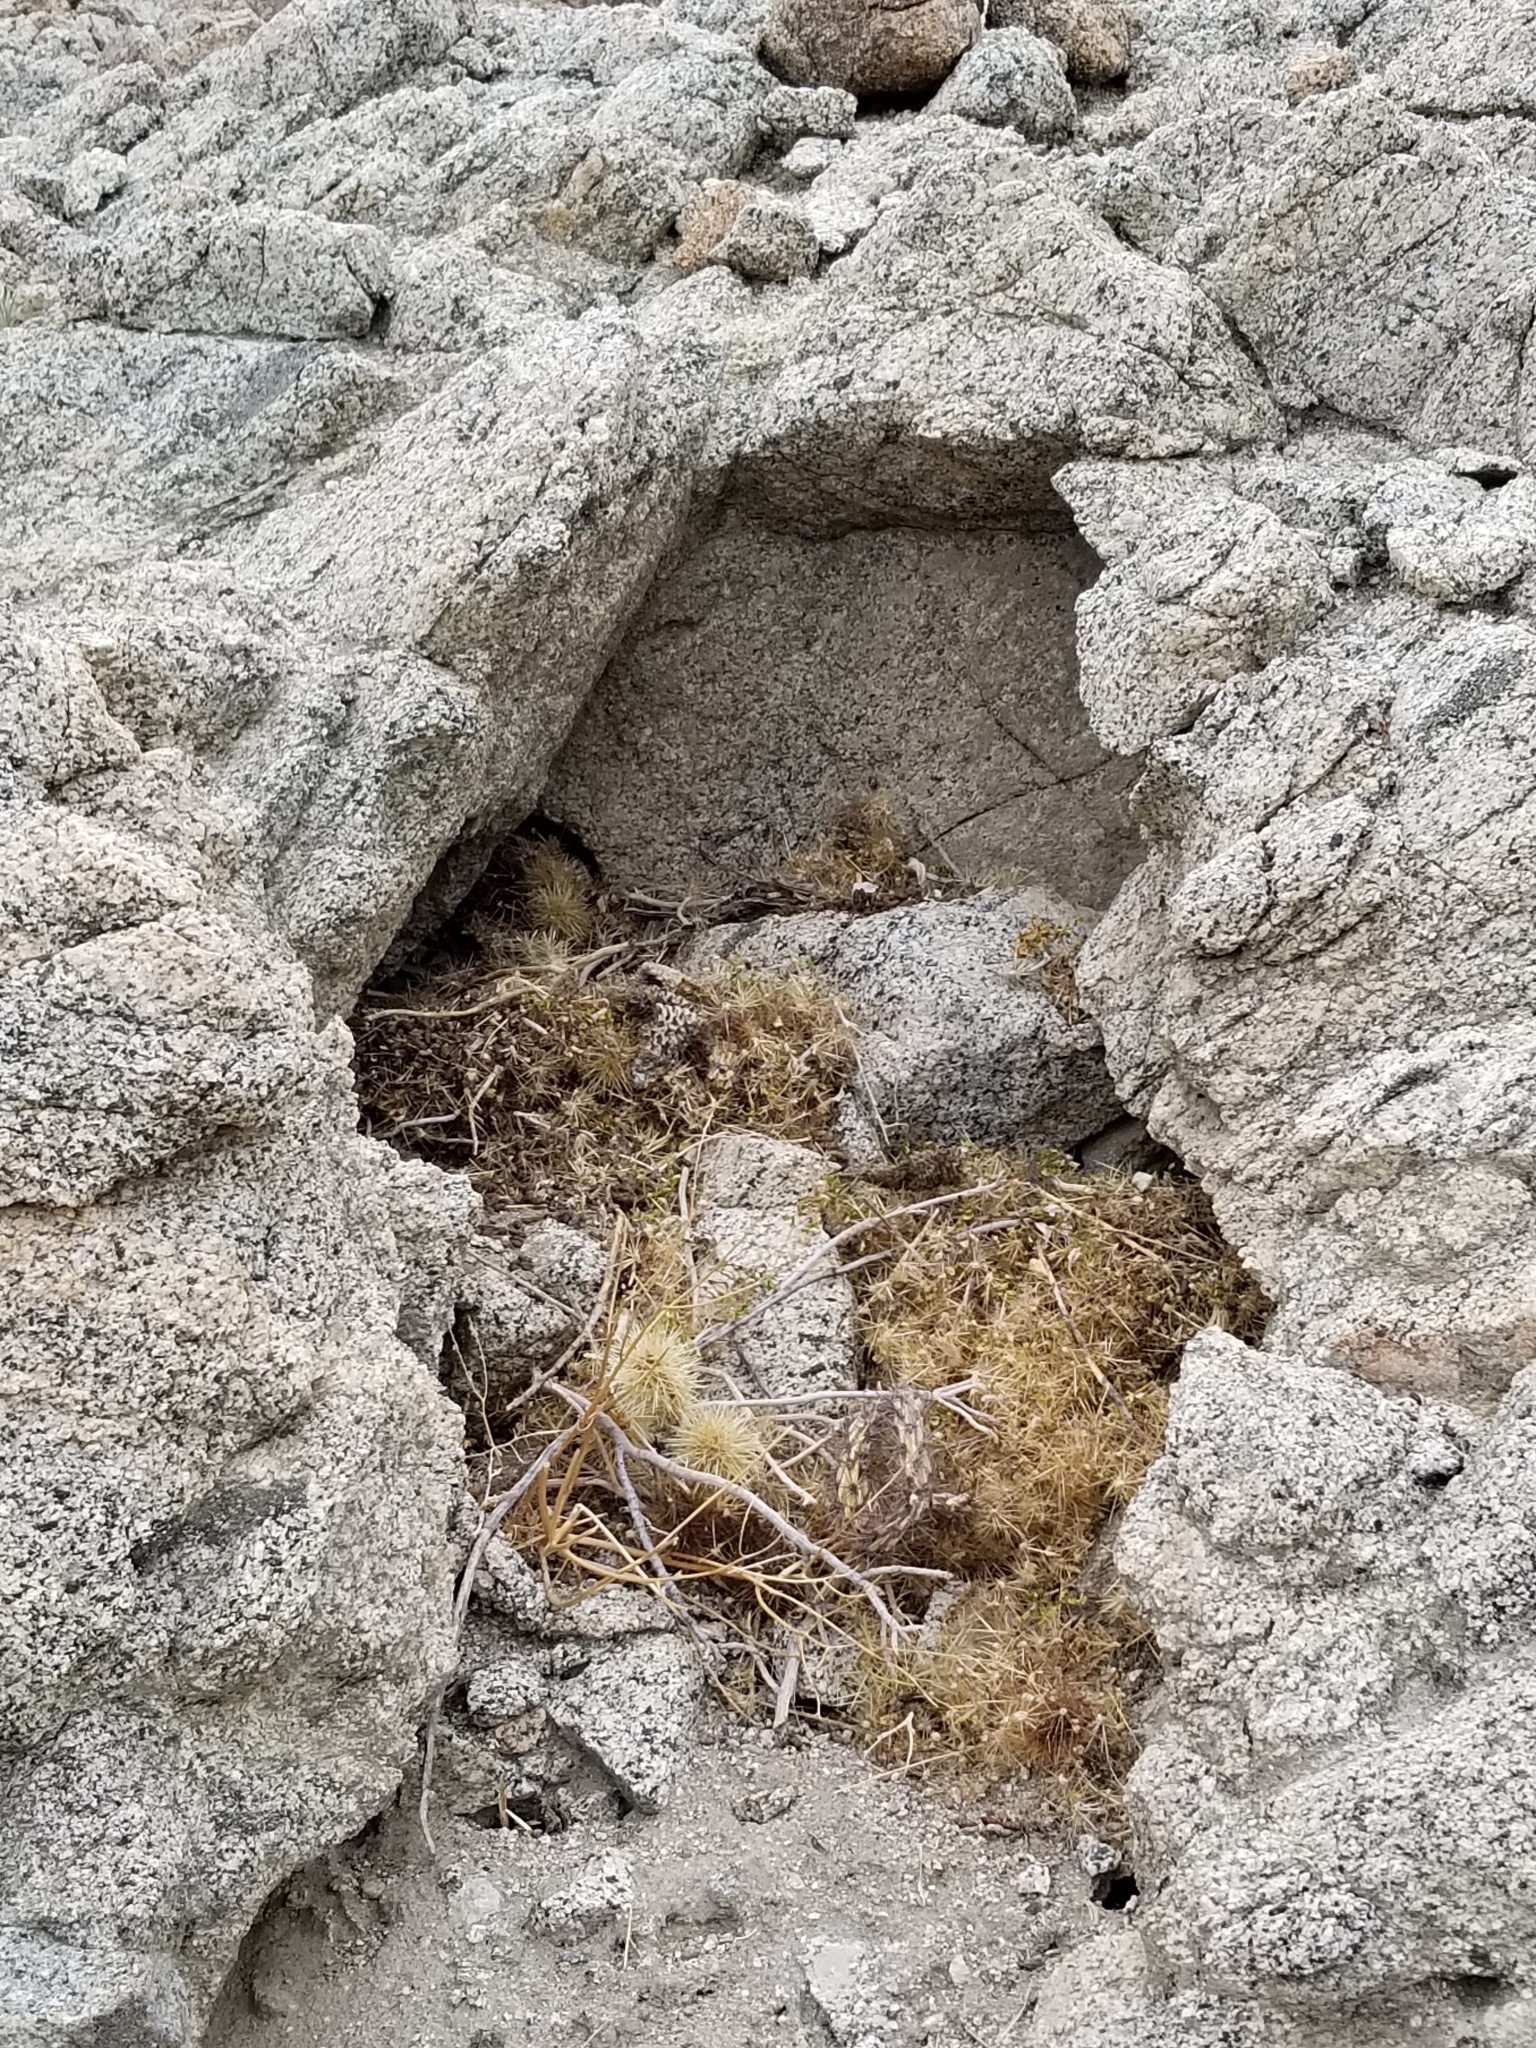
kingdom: Animalia
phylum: Chordata
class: Mammalia
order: Rodentia
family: Cricetidae
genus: Neotoma
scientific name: Neotoma lepida
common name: Desert woodrat
